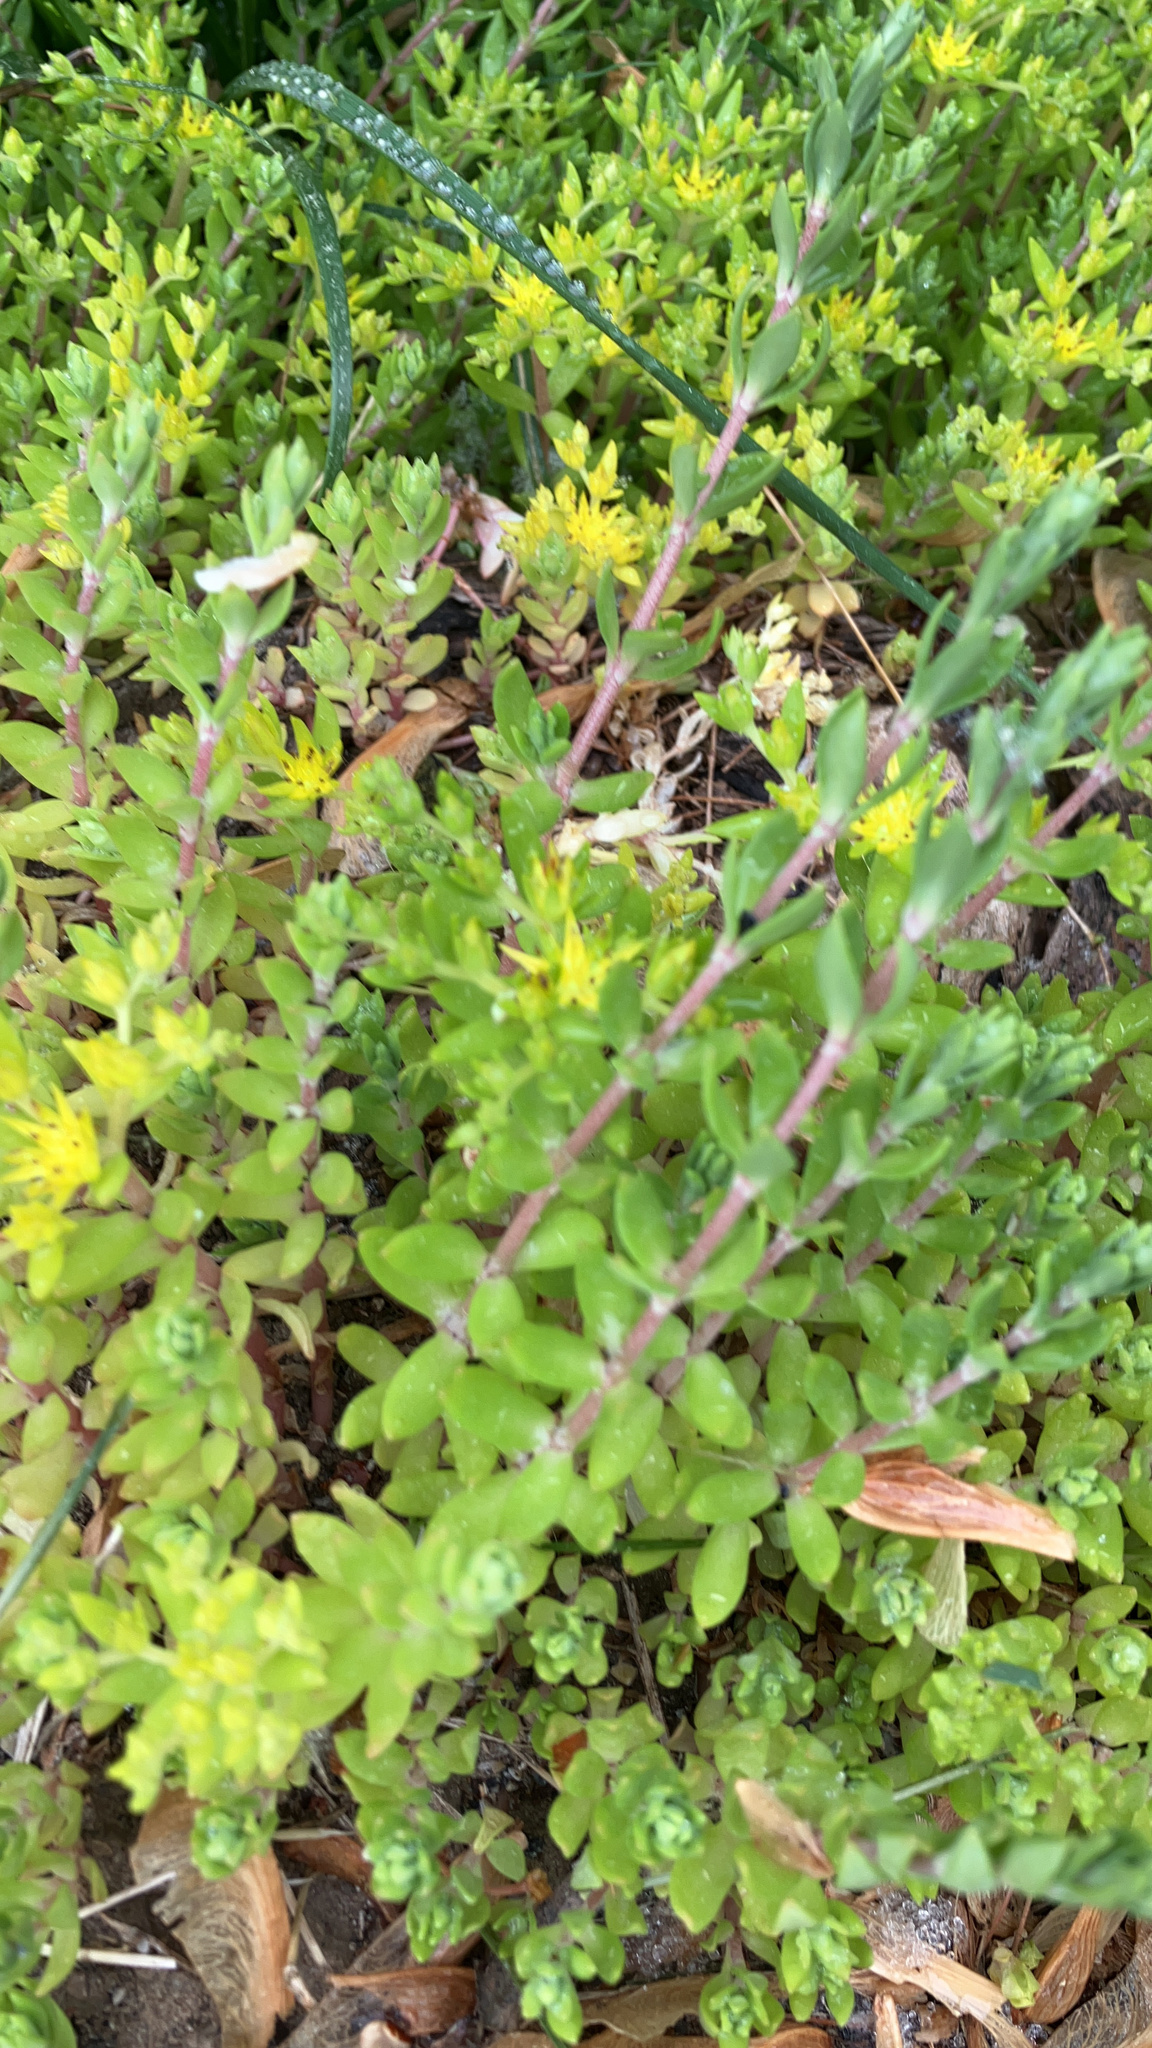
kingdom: Plantae
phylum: Tracheophyta
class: Magnoliopsida
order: Saxifragales
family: Crassulaceae
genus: Sedum
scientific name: Sedum sarmentosum
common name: Stringy stonecrop
